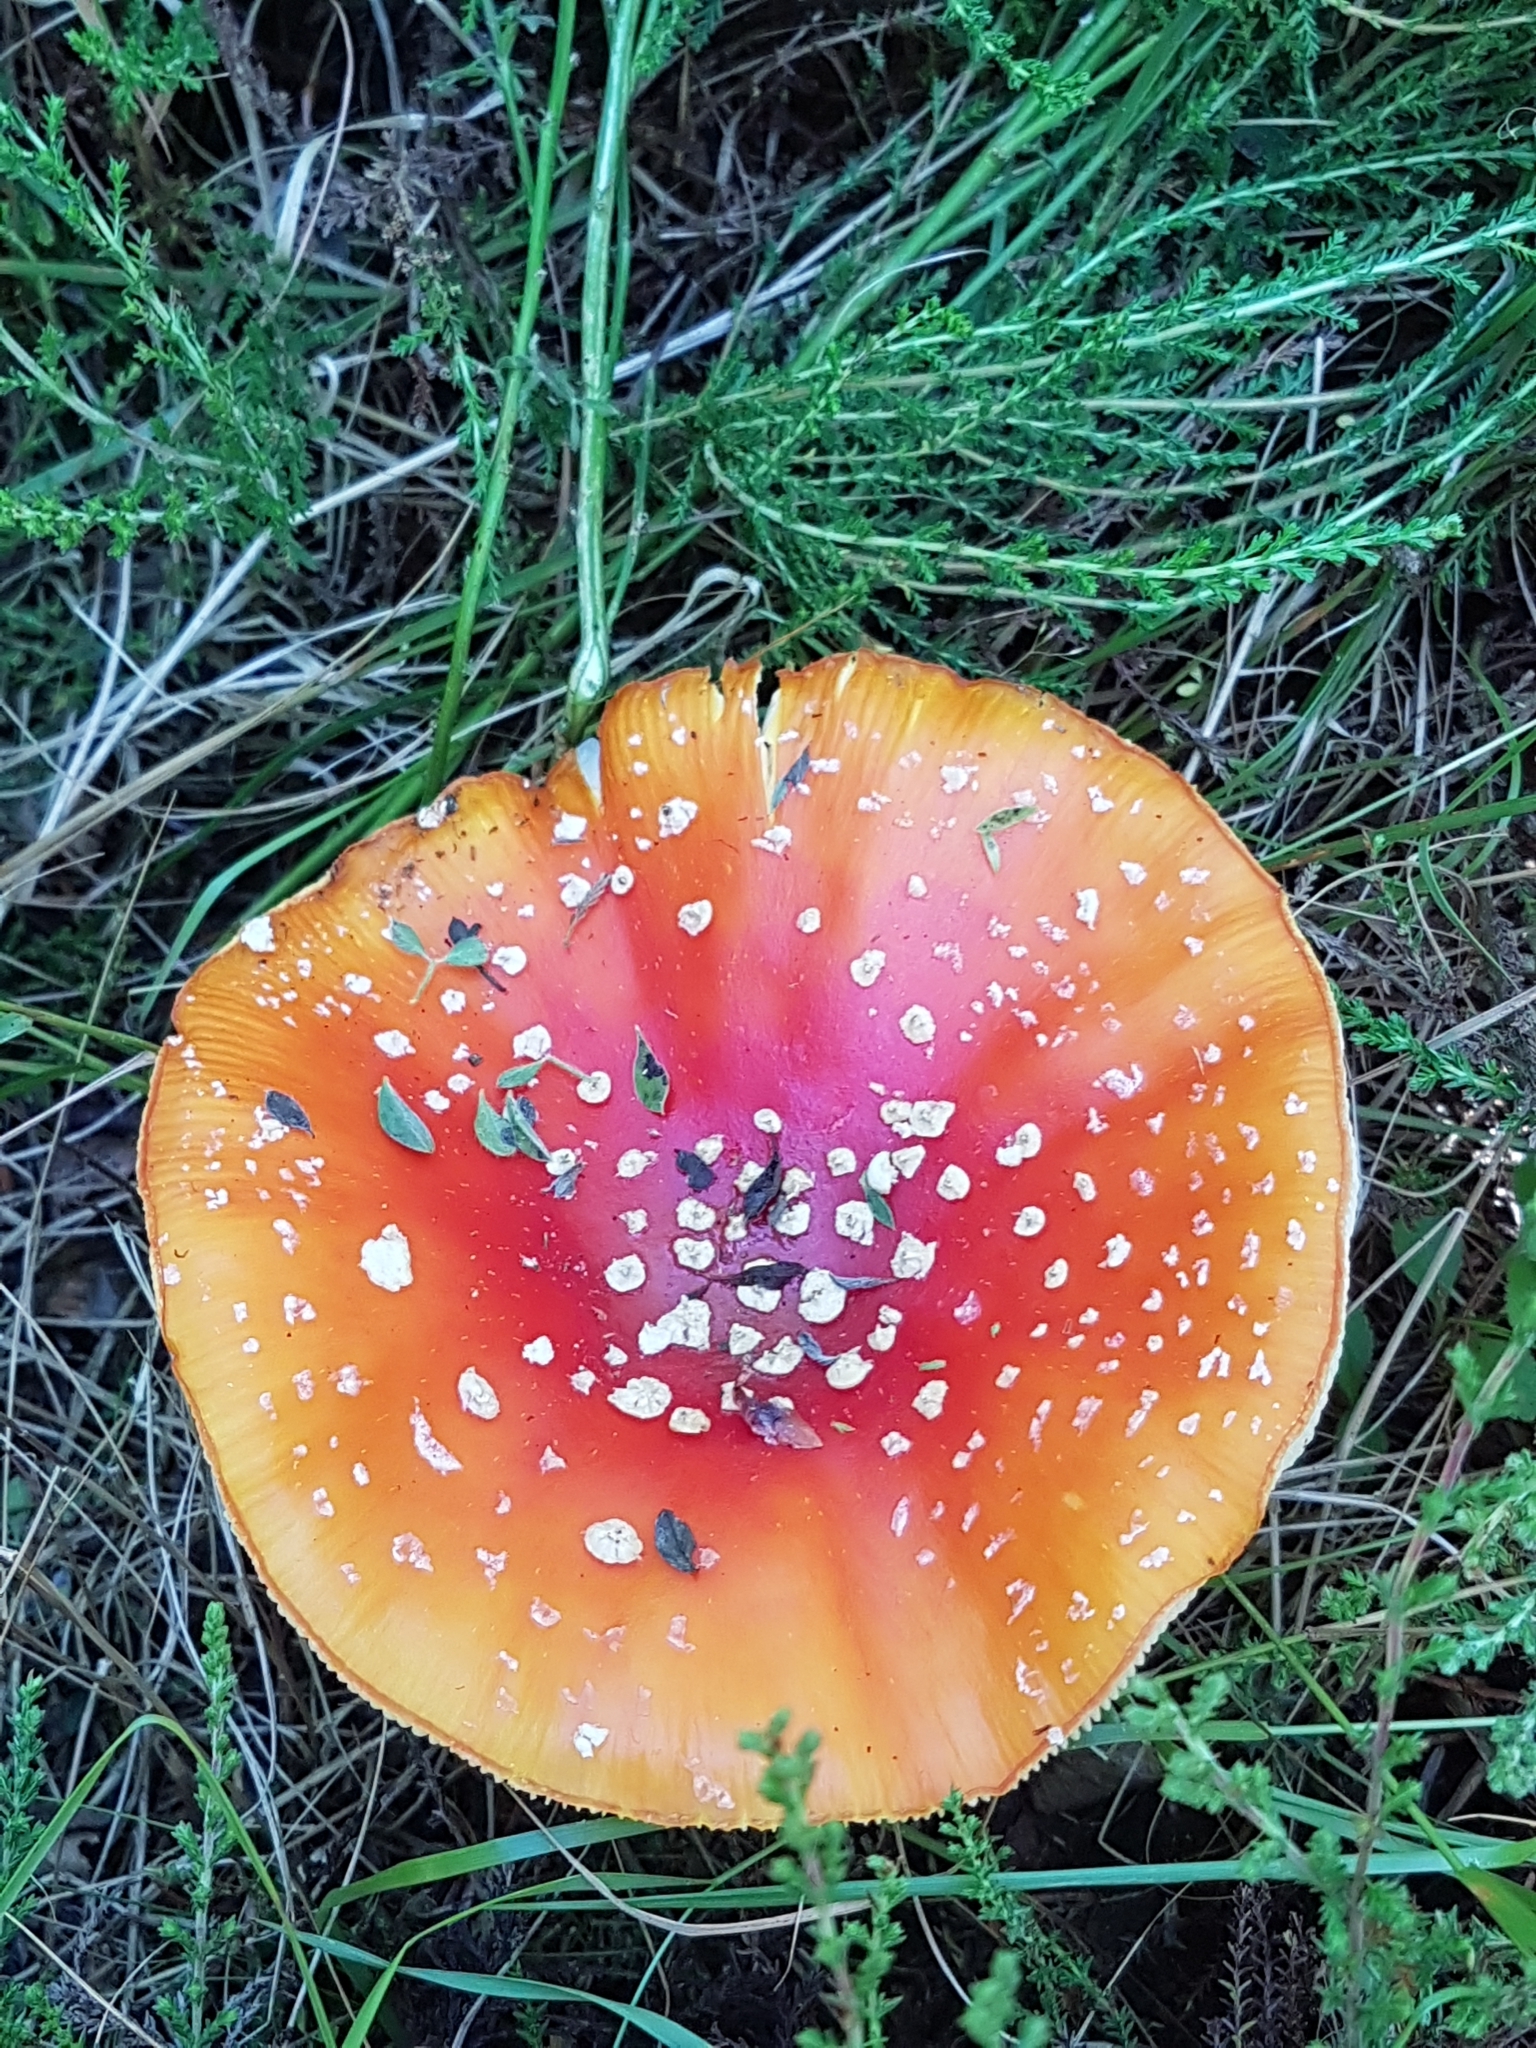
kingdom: Fungi
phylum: Basidiomycota
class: Agaricomycetes
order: Agaricales
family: Amanitaceae
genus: Amanita
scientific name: Amanita muscaria
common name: Fly agaric
